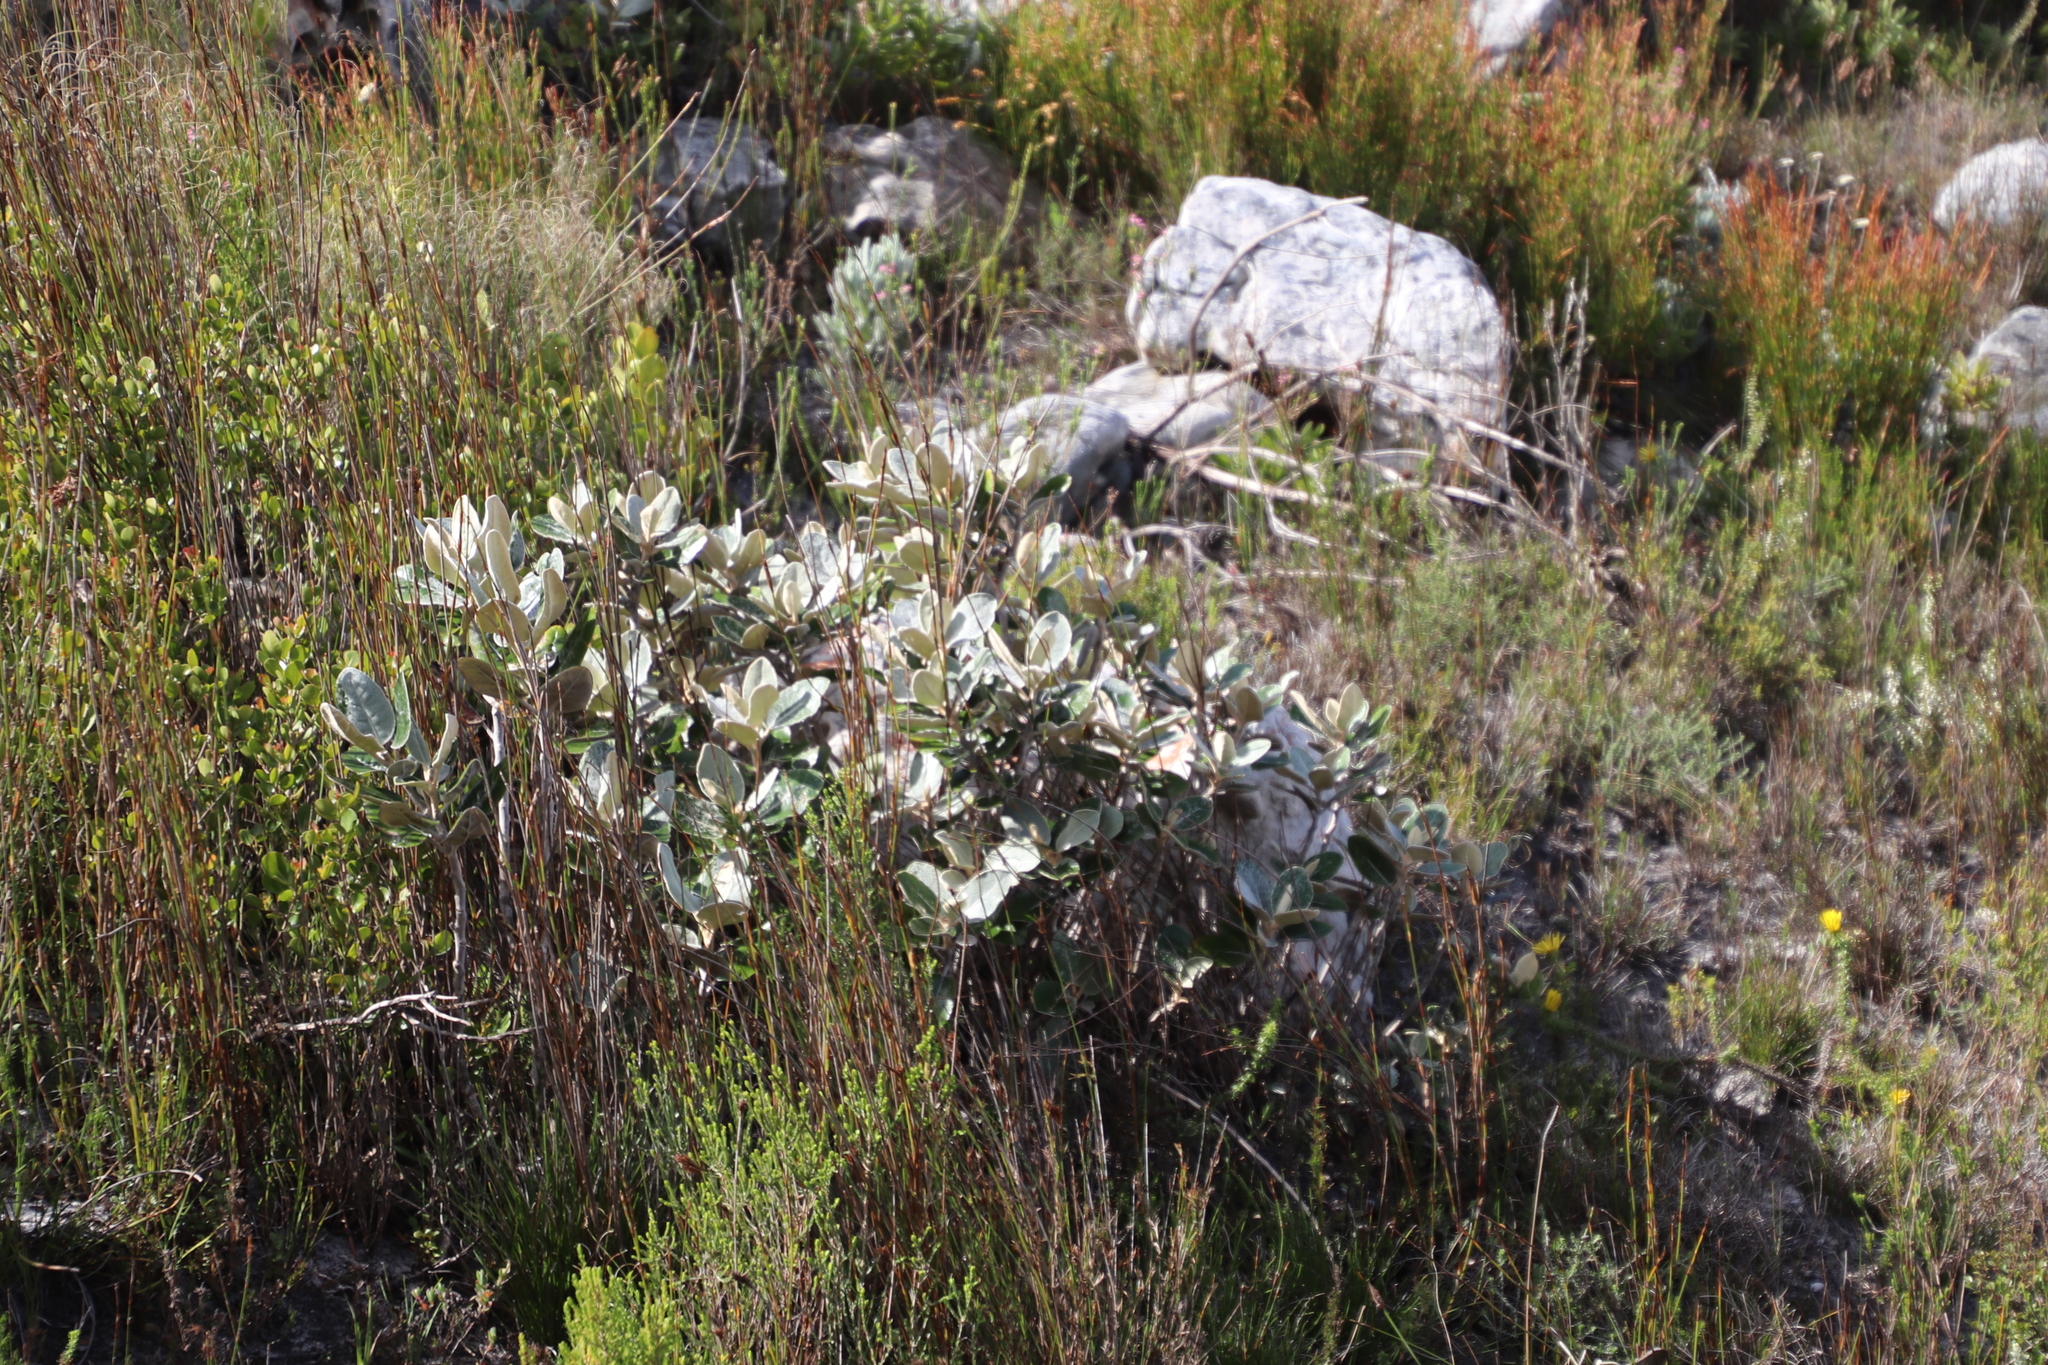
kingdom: Plantae
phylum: Tracheophyta
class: Magnoliopsida
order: Asterales
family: Asteraceae
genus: Capelio
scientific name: Capelio tabularis
